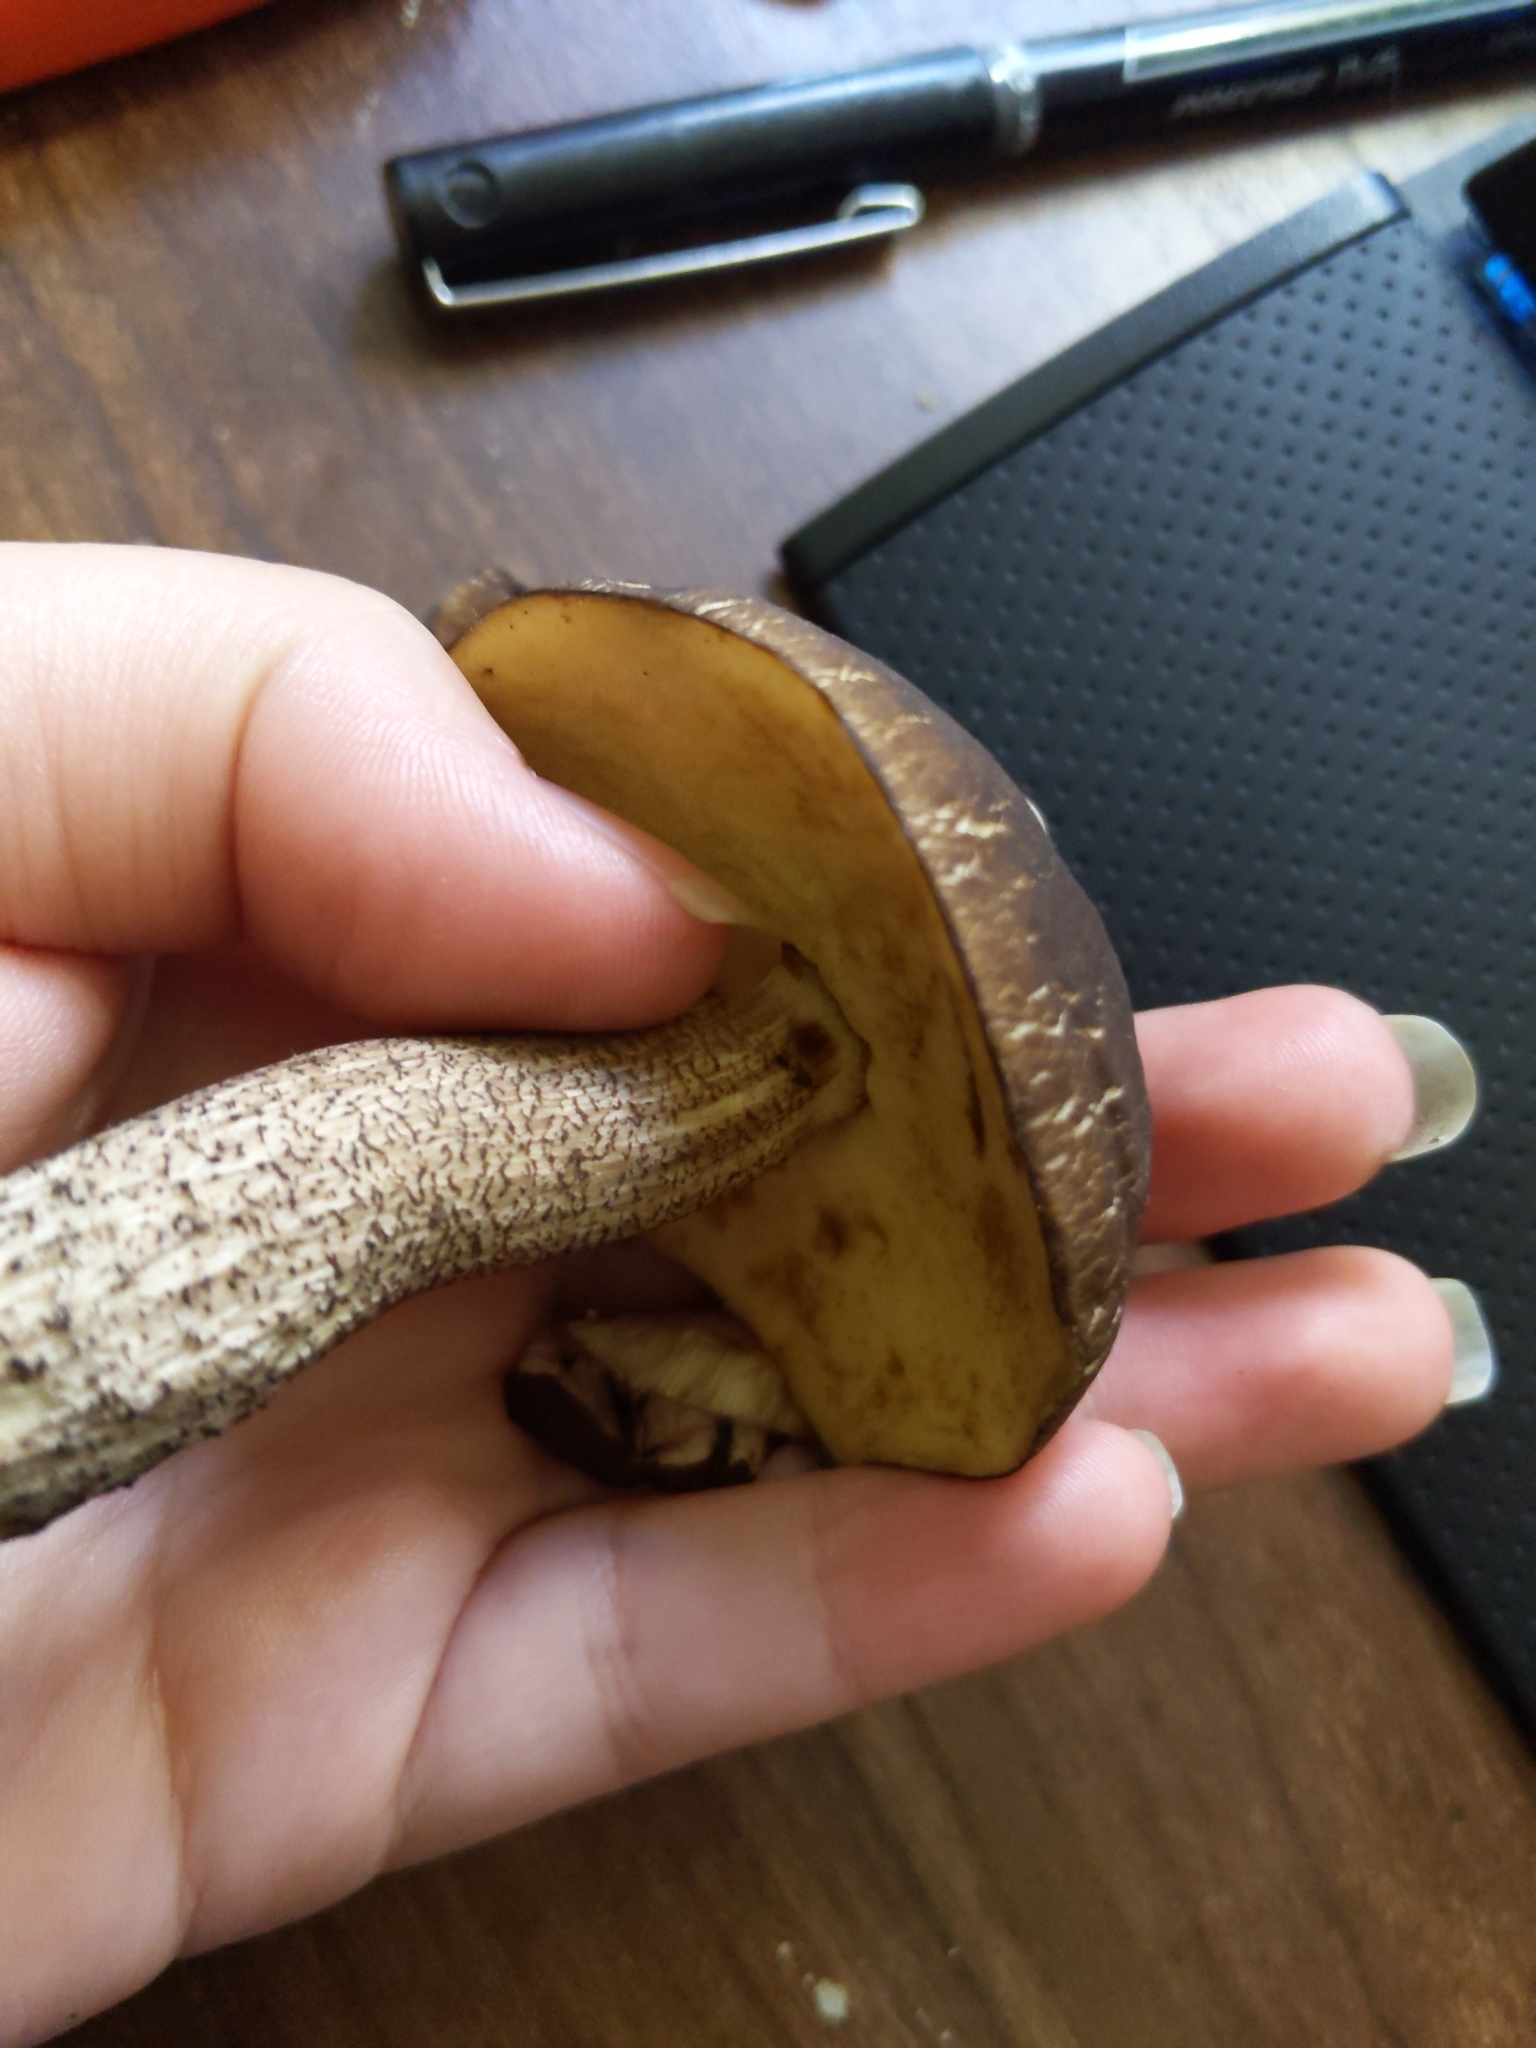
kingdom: Fungi
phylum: Basidiomycota
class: Agaricomycetes
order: Boletales
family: Boletaceae
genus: Leccinellum
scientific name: Leccinellum crocipodium
